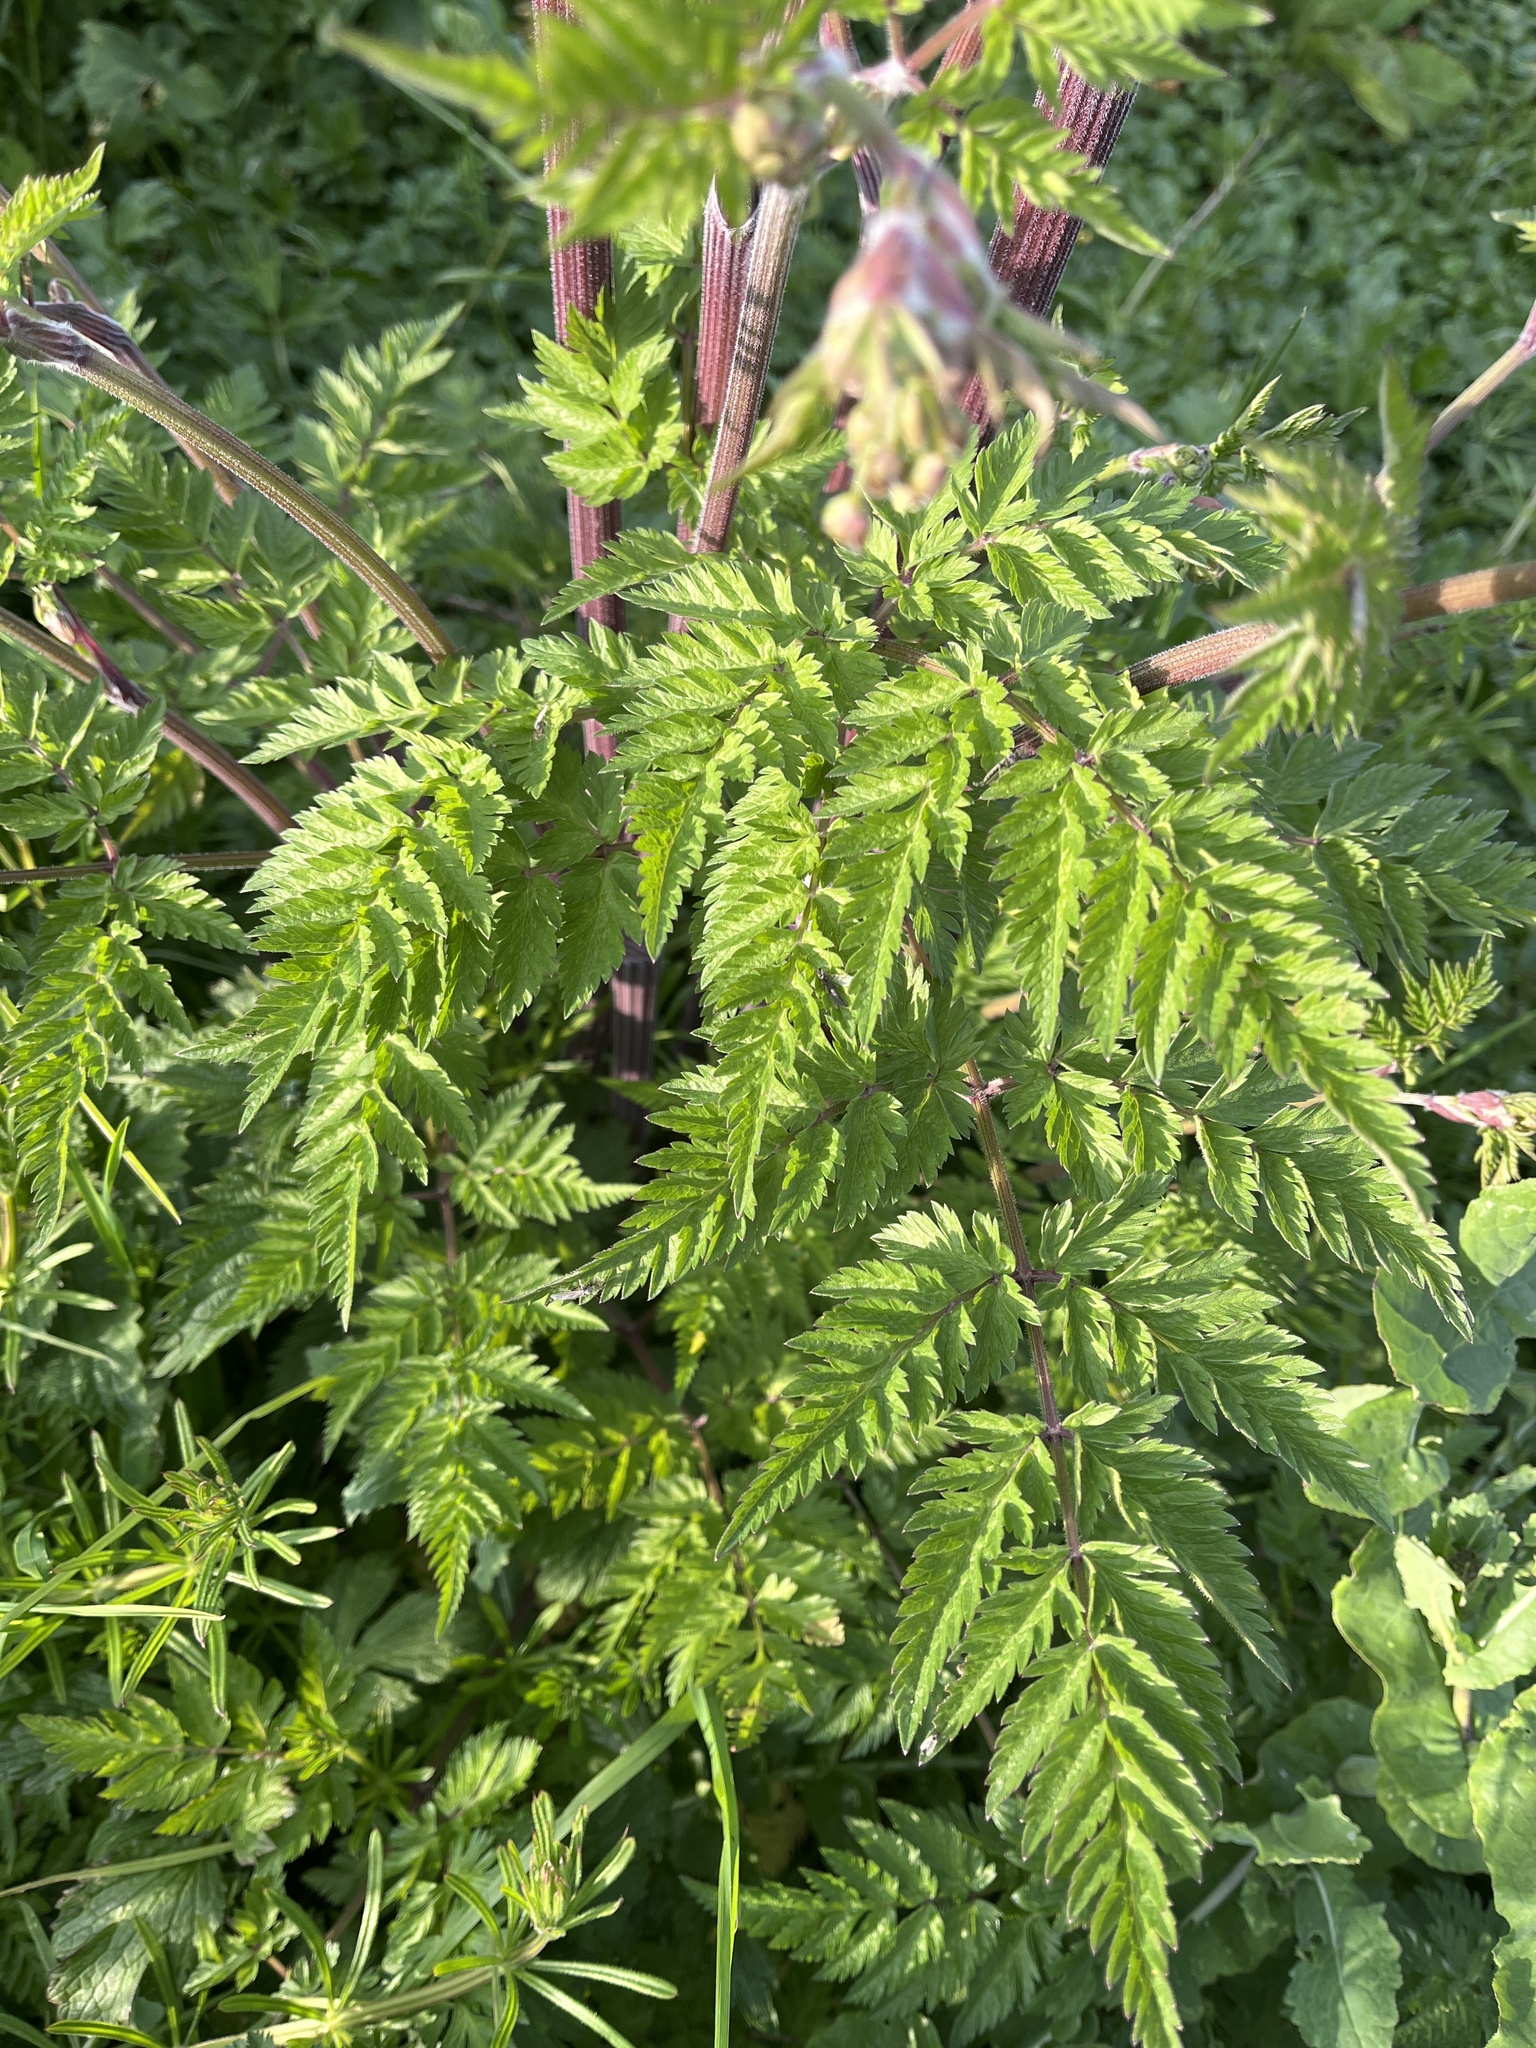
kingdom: Plantae
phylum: Tracheophyta
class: Magnoliopsida
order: Apiales
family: Apiaceae
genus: Anthriscus
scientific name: Anthriscus sylvestris
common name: Cow parsley
